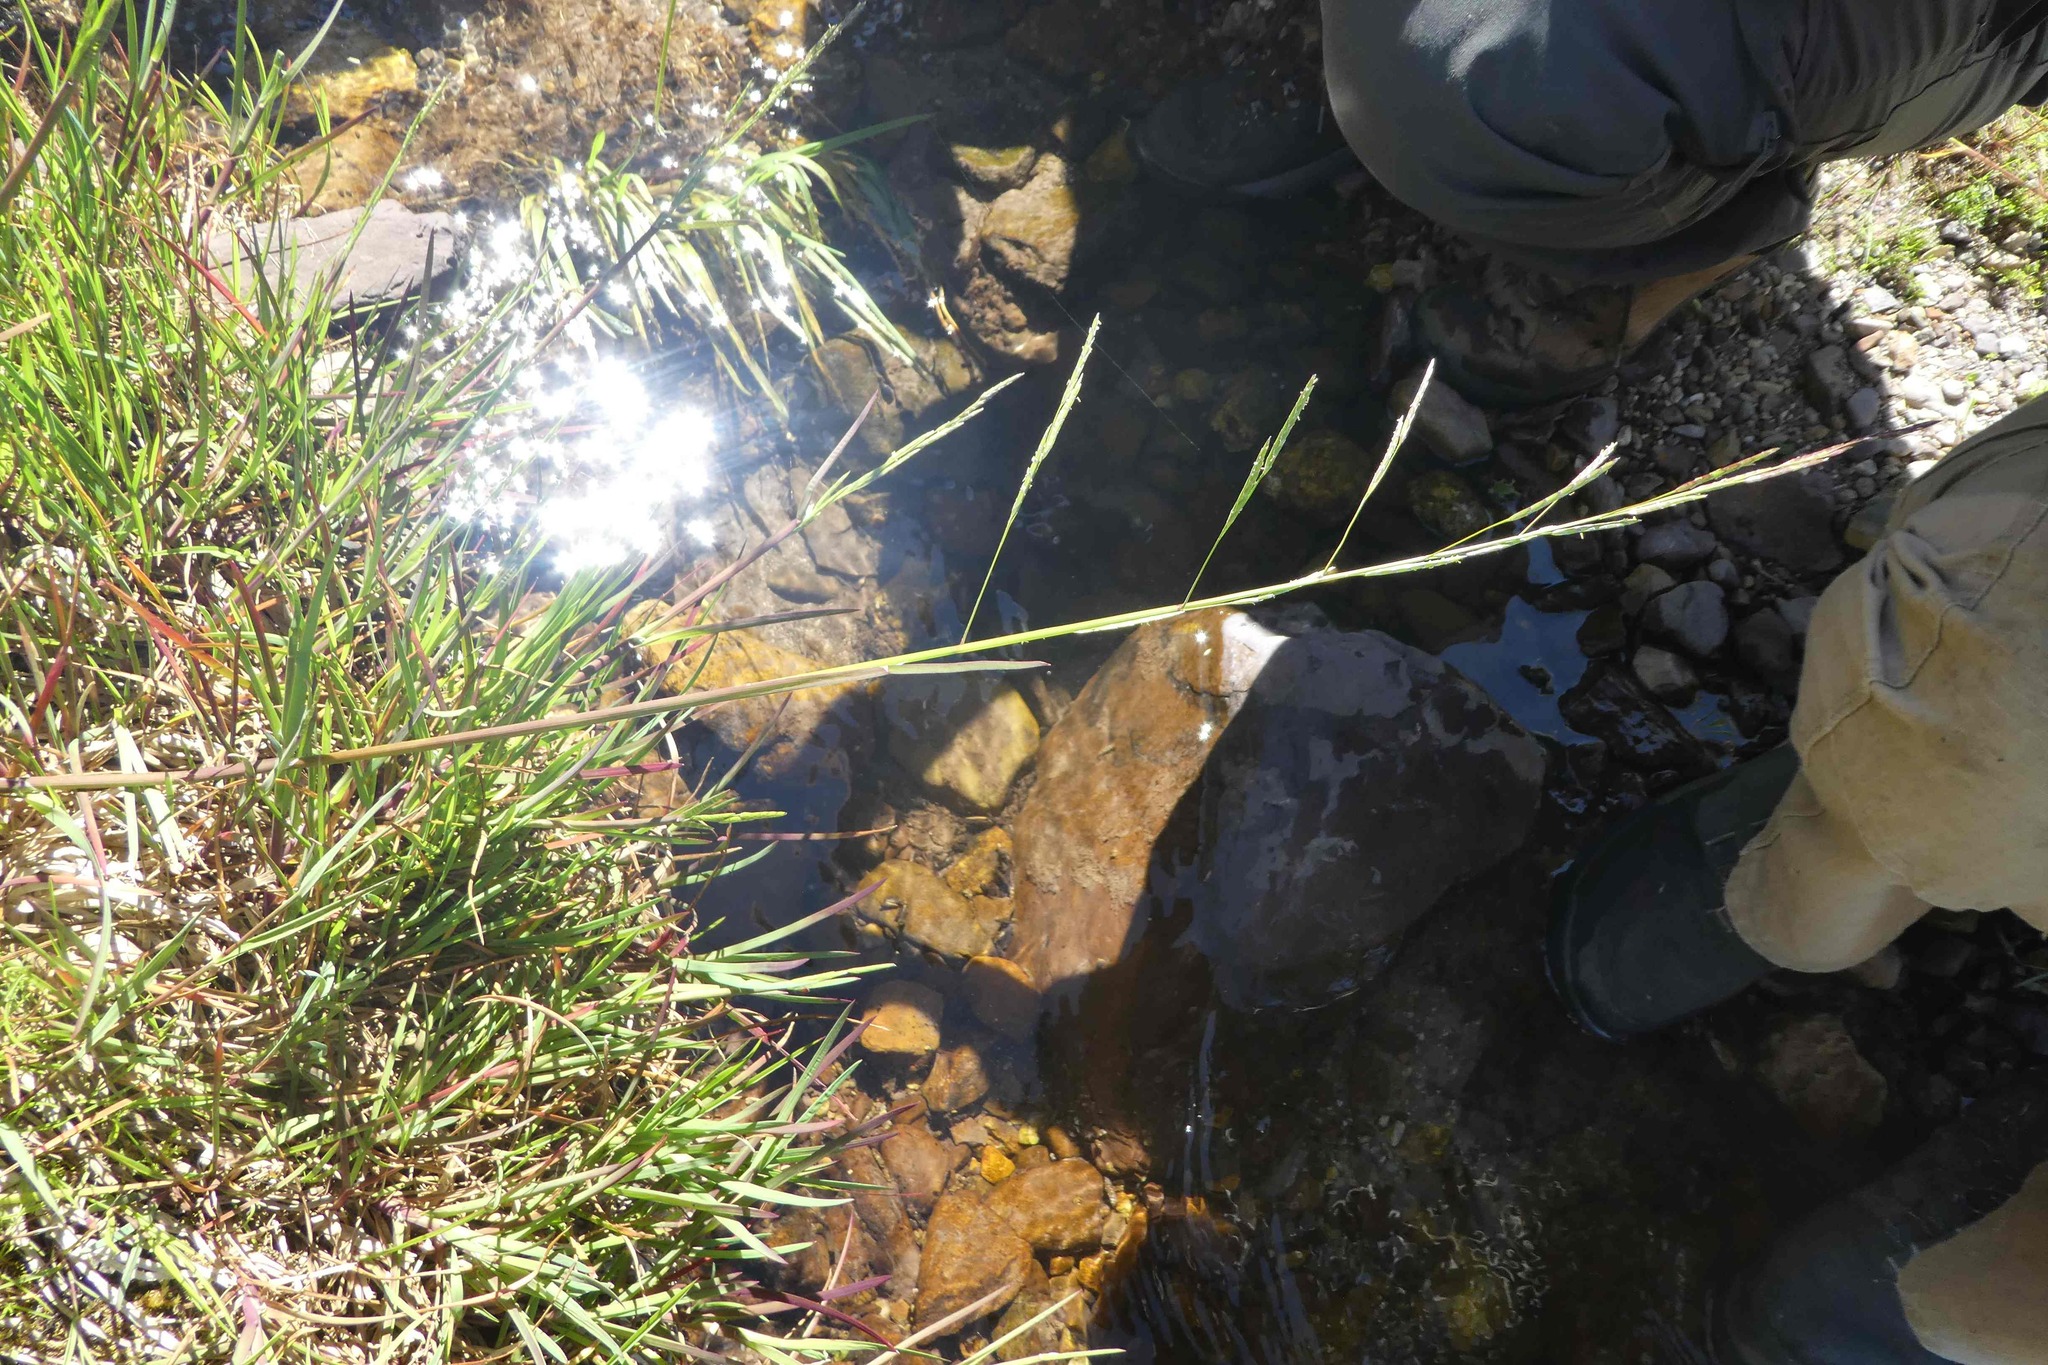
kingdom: Plantae
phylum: Tracheophyta
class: Liliopsida
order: Poales
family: Poaceae
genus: Glyceria
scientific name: Glyceria fluitans
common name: Floating sweet-grass
